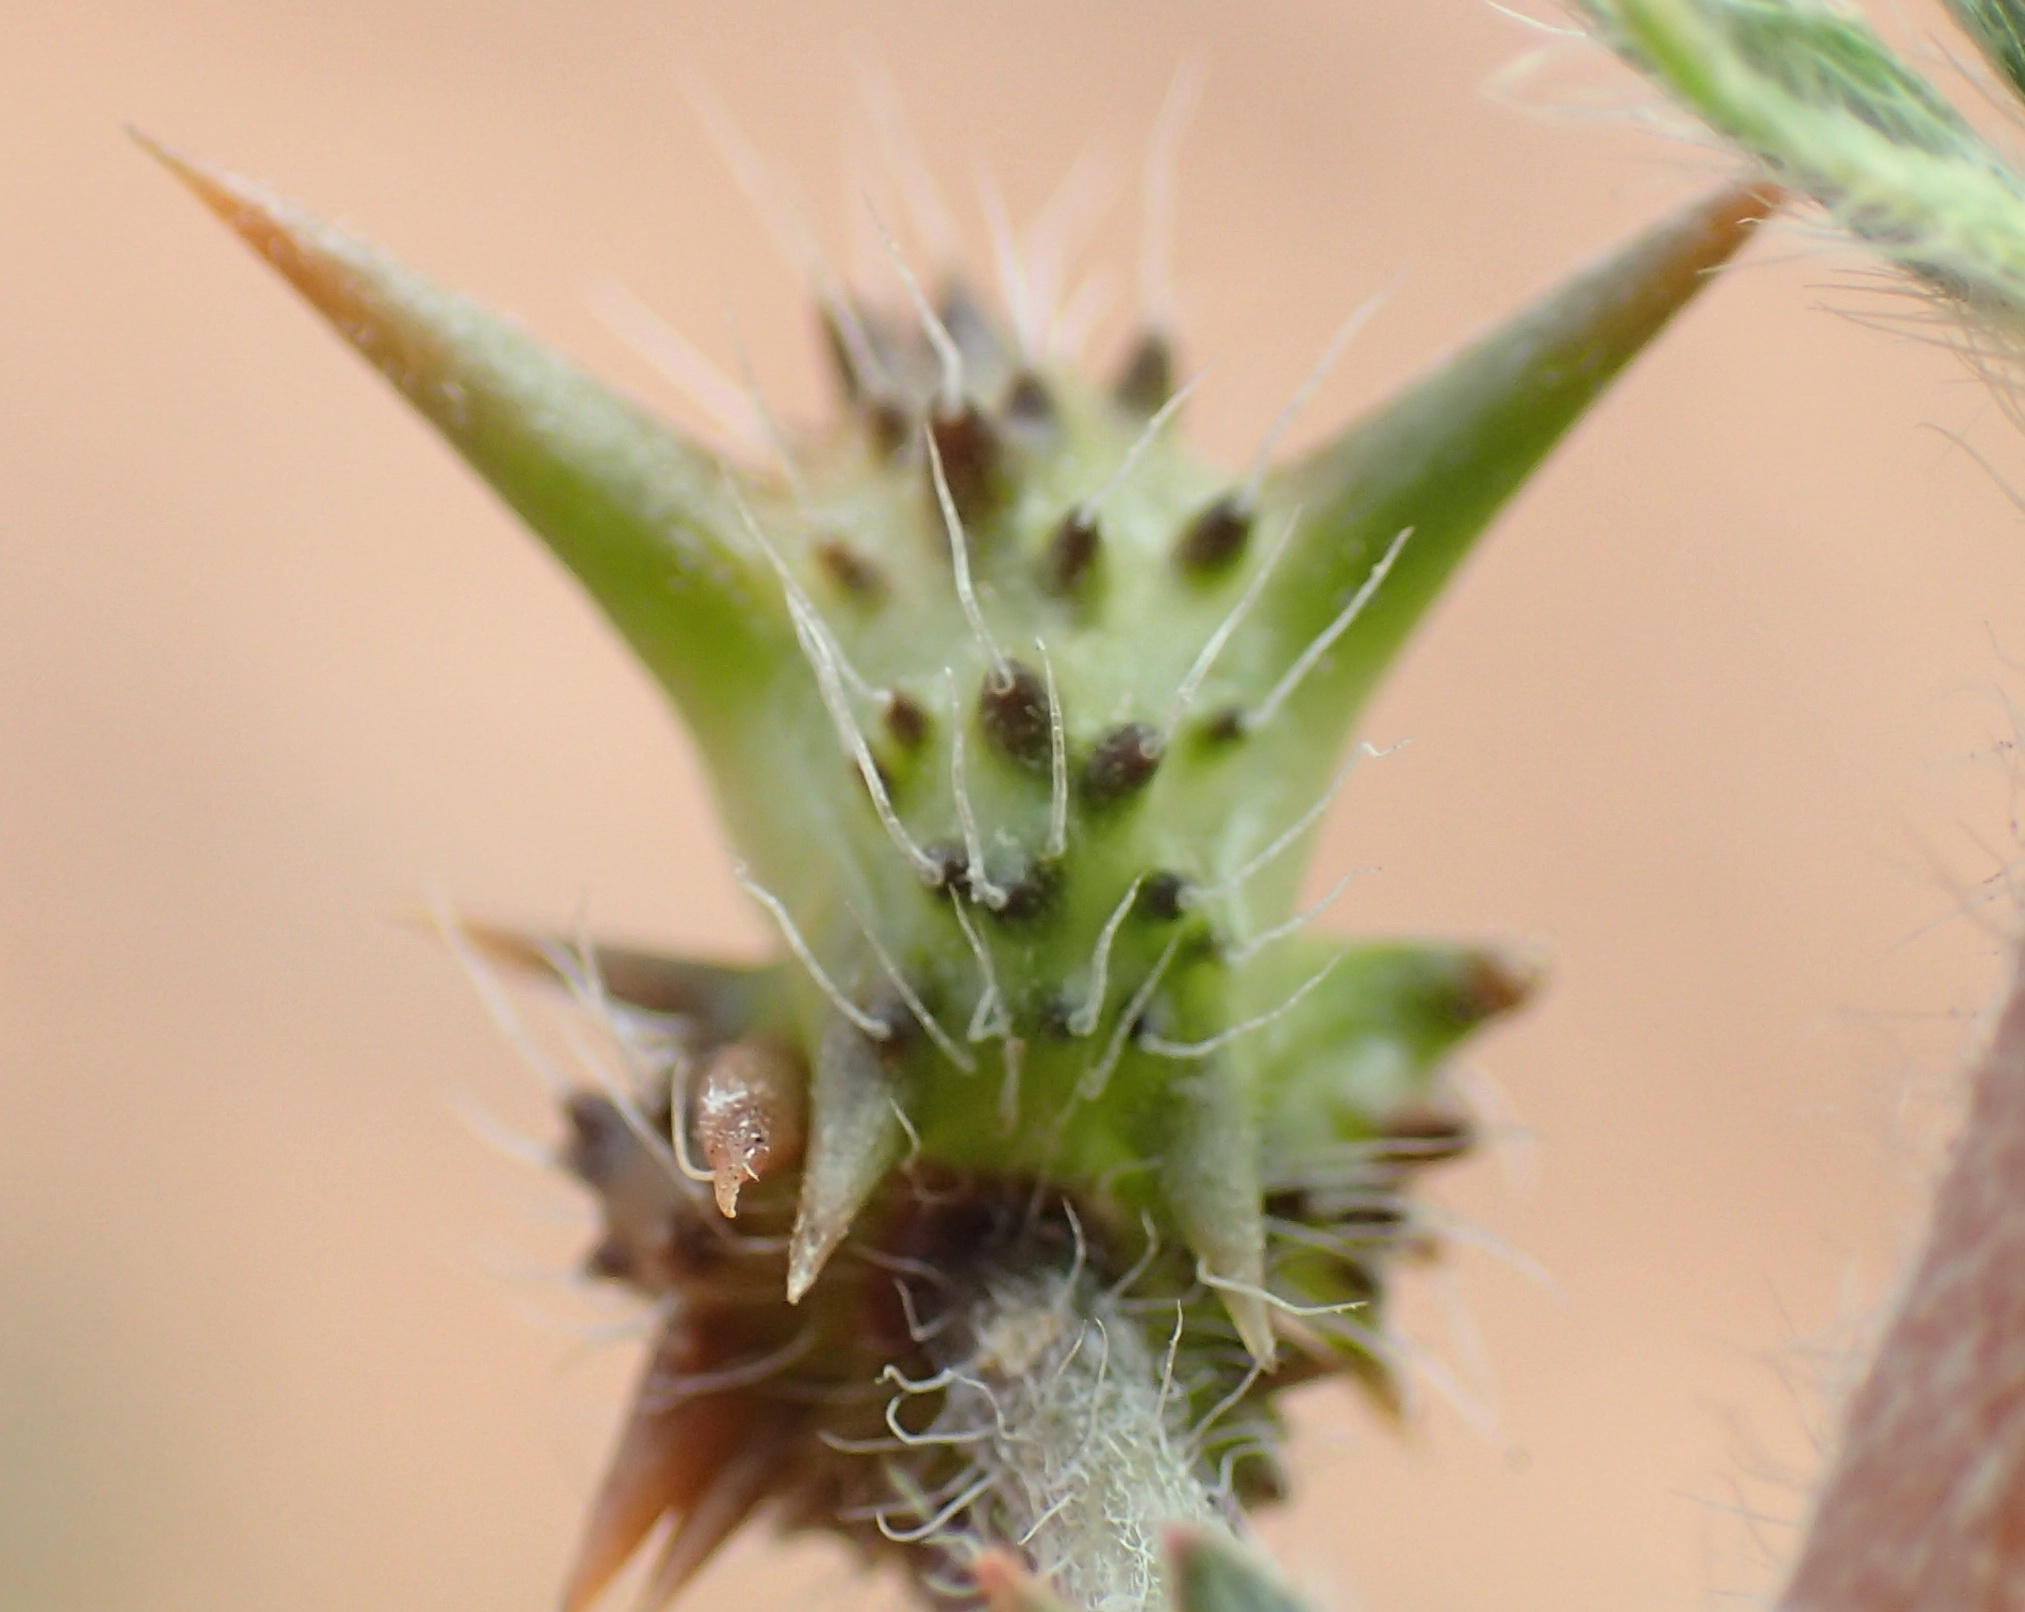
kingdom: Plantae
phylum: Tracheophyta
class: Magnoliopsida
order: Zygophyllales
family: Zygophyllaceae
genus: Tribulus
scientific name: Tribulus terrestris
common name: Puncturevine
